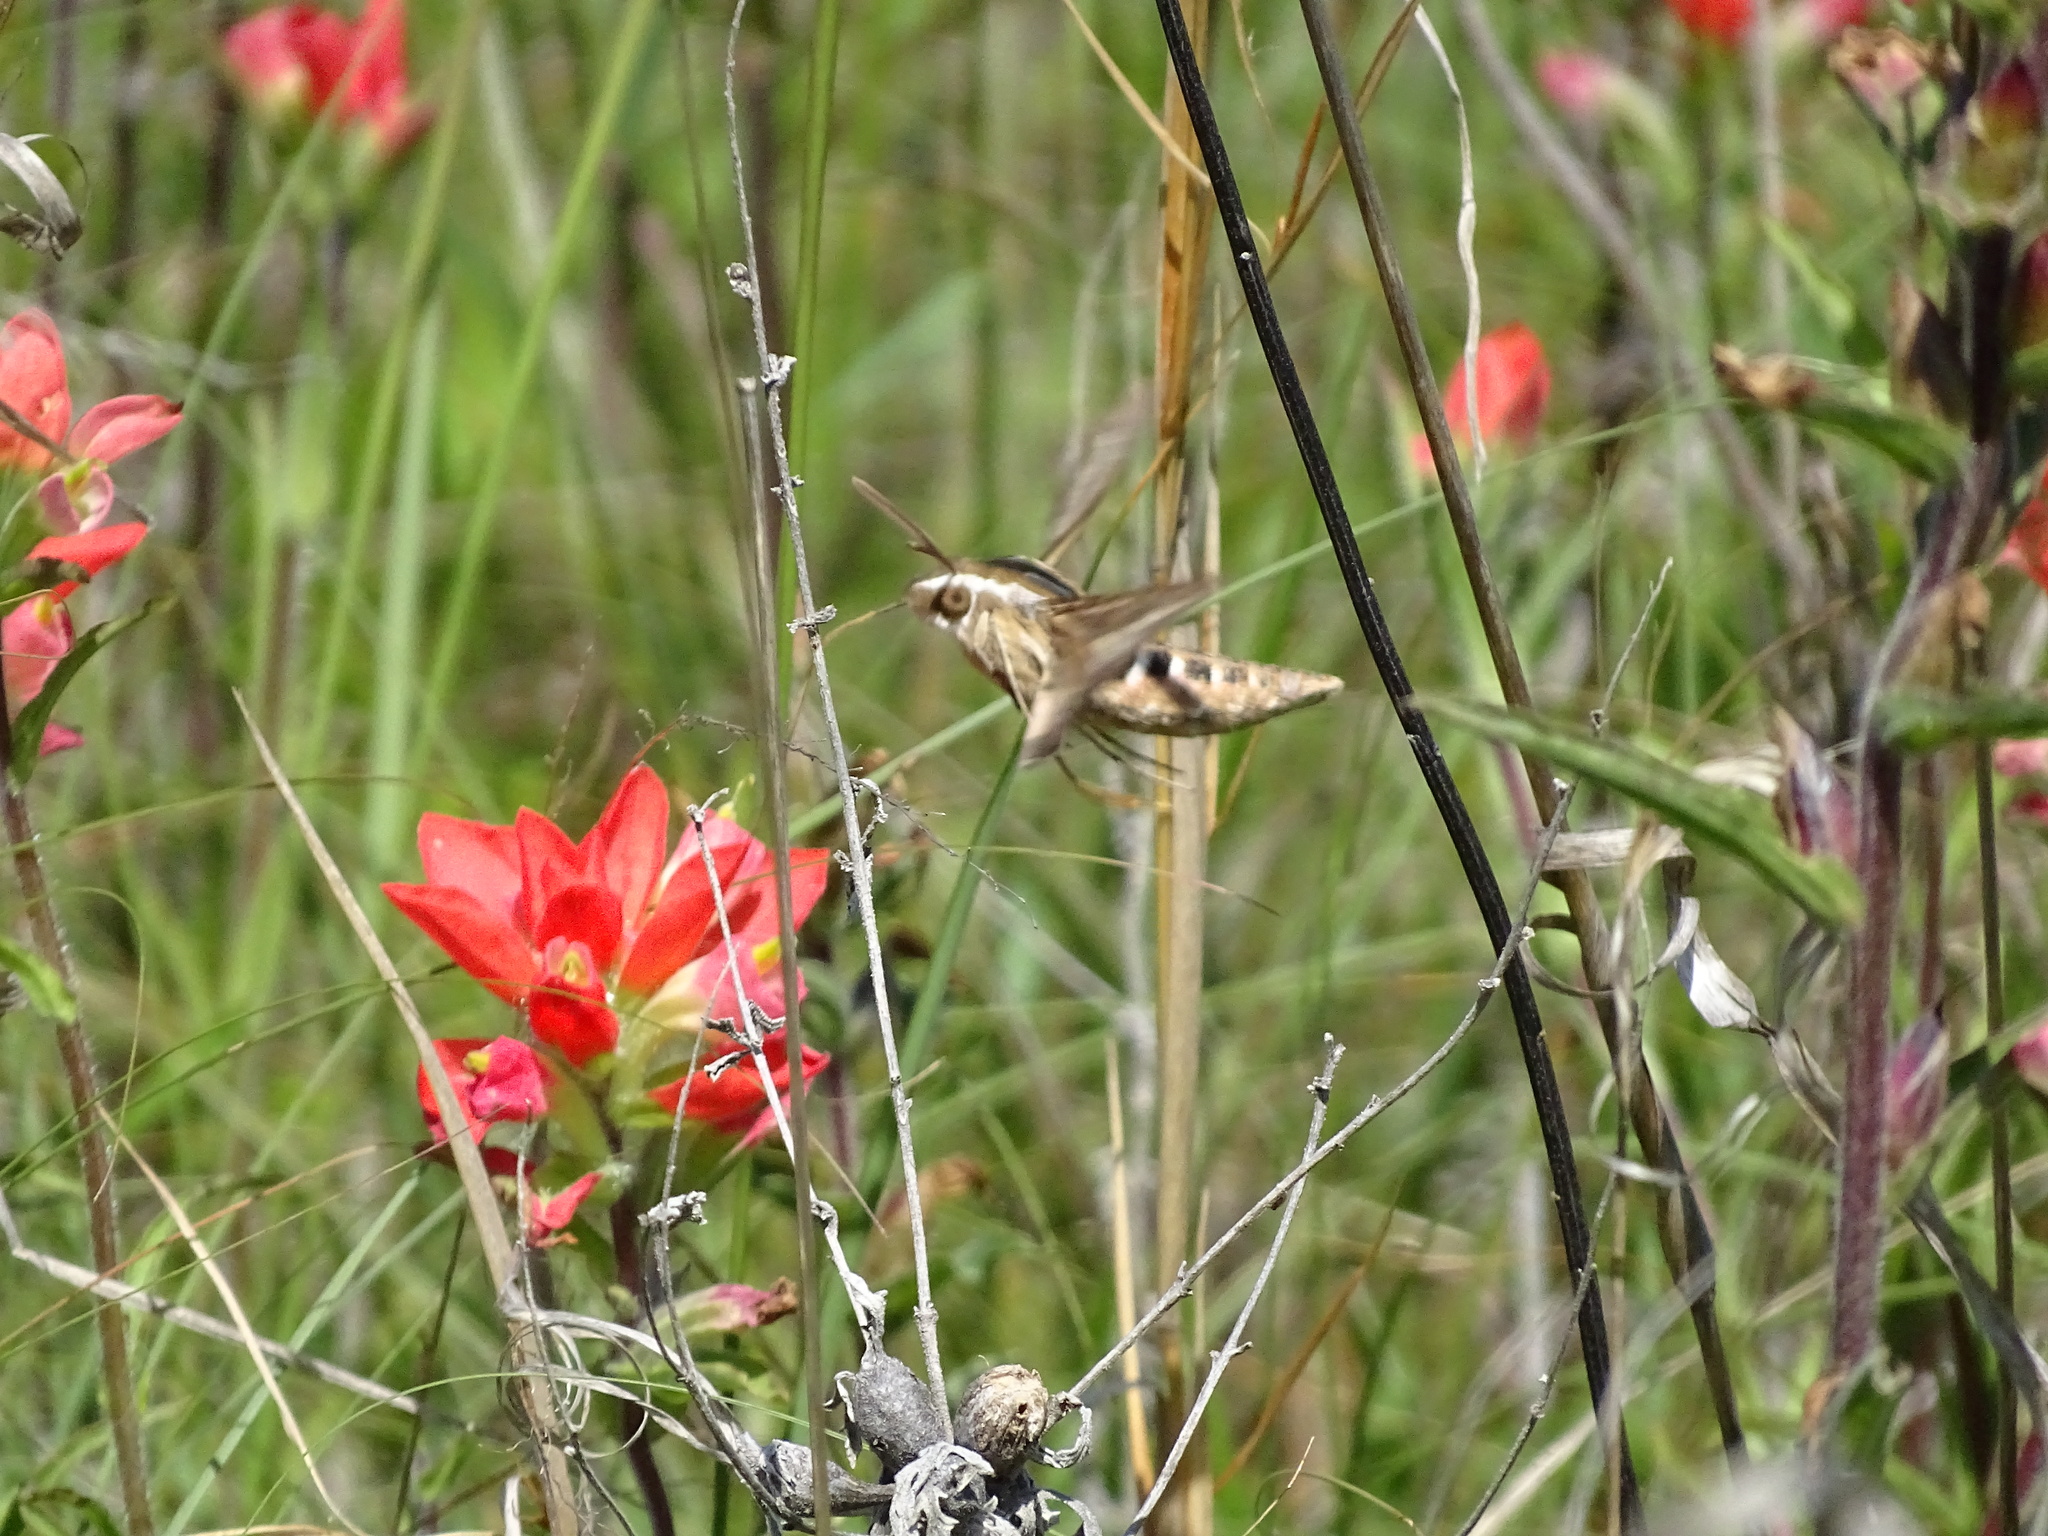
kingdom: Animalia
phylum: Arthropoda
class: Insecta
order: Lepidoptera
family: Sphingidae
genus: Hyles
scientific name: Hyles lineata
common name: White-lined sphinx
